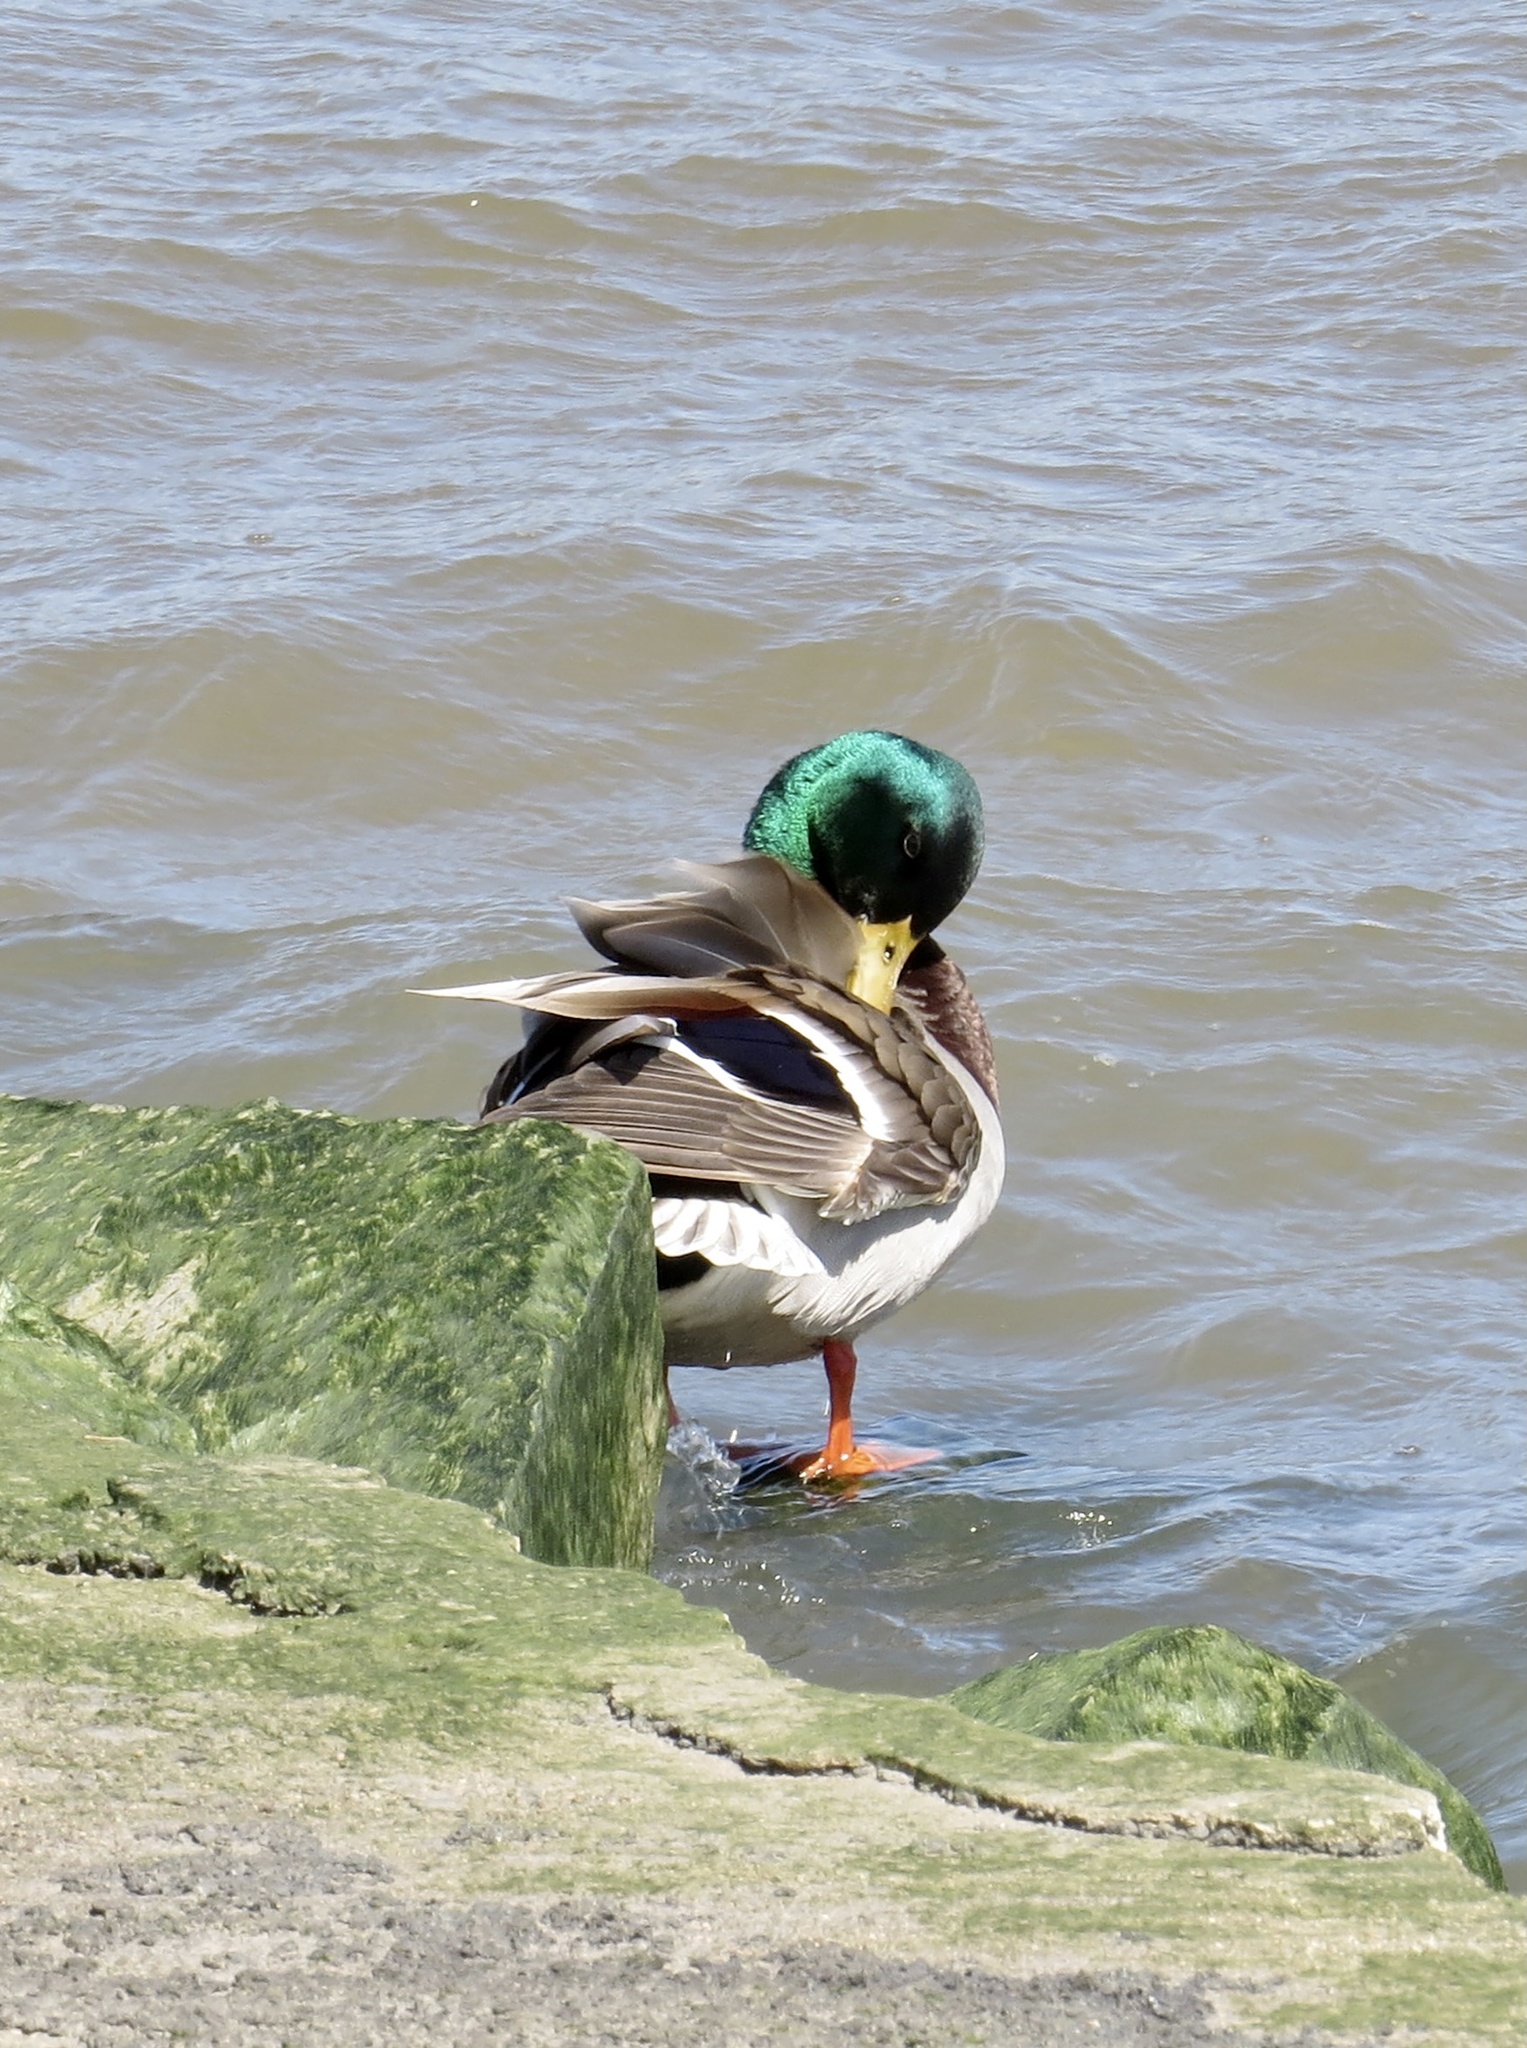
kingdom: Animalia
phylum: Chordata
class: Aves
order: Anseriformes
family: Anatidae
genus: Anas
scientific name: Anas platyrhynchos
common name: Mallard
